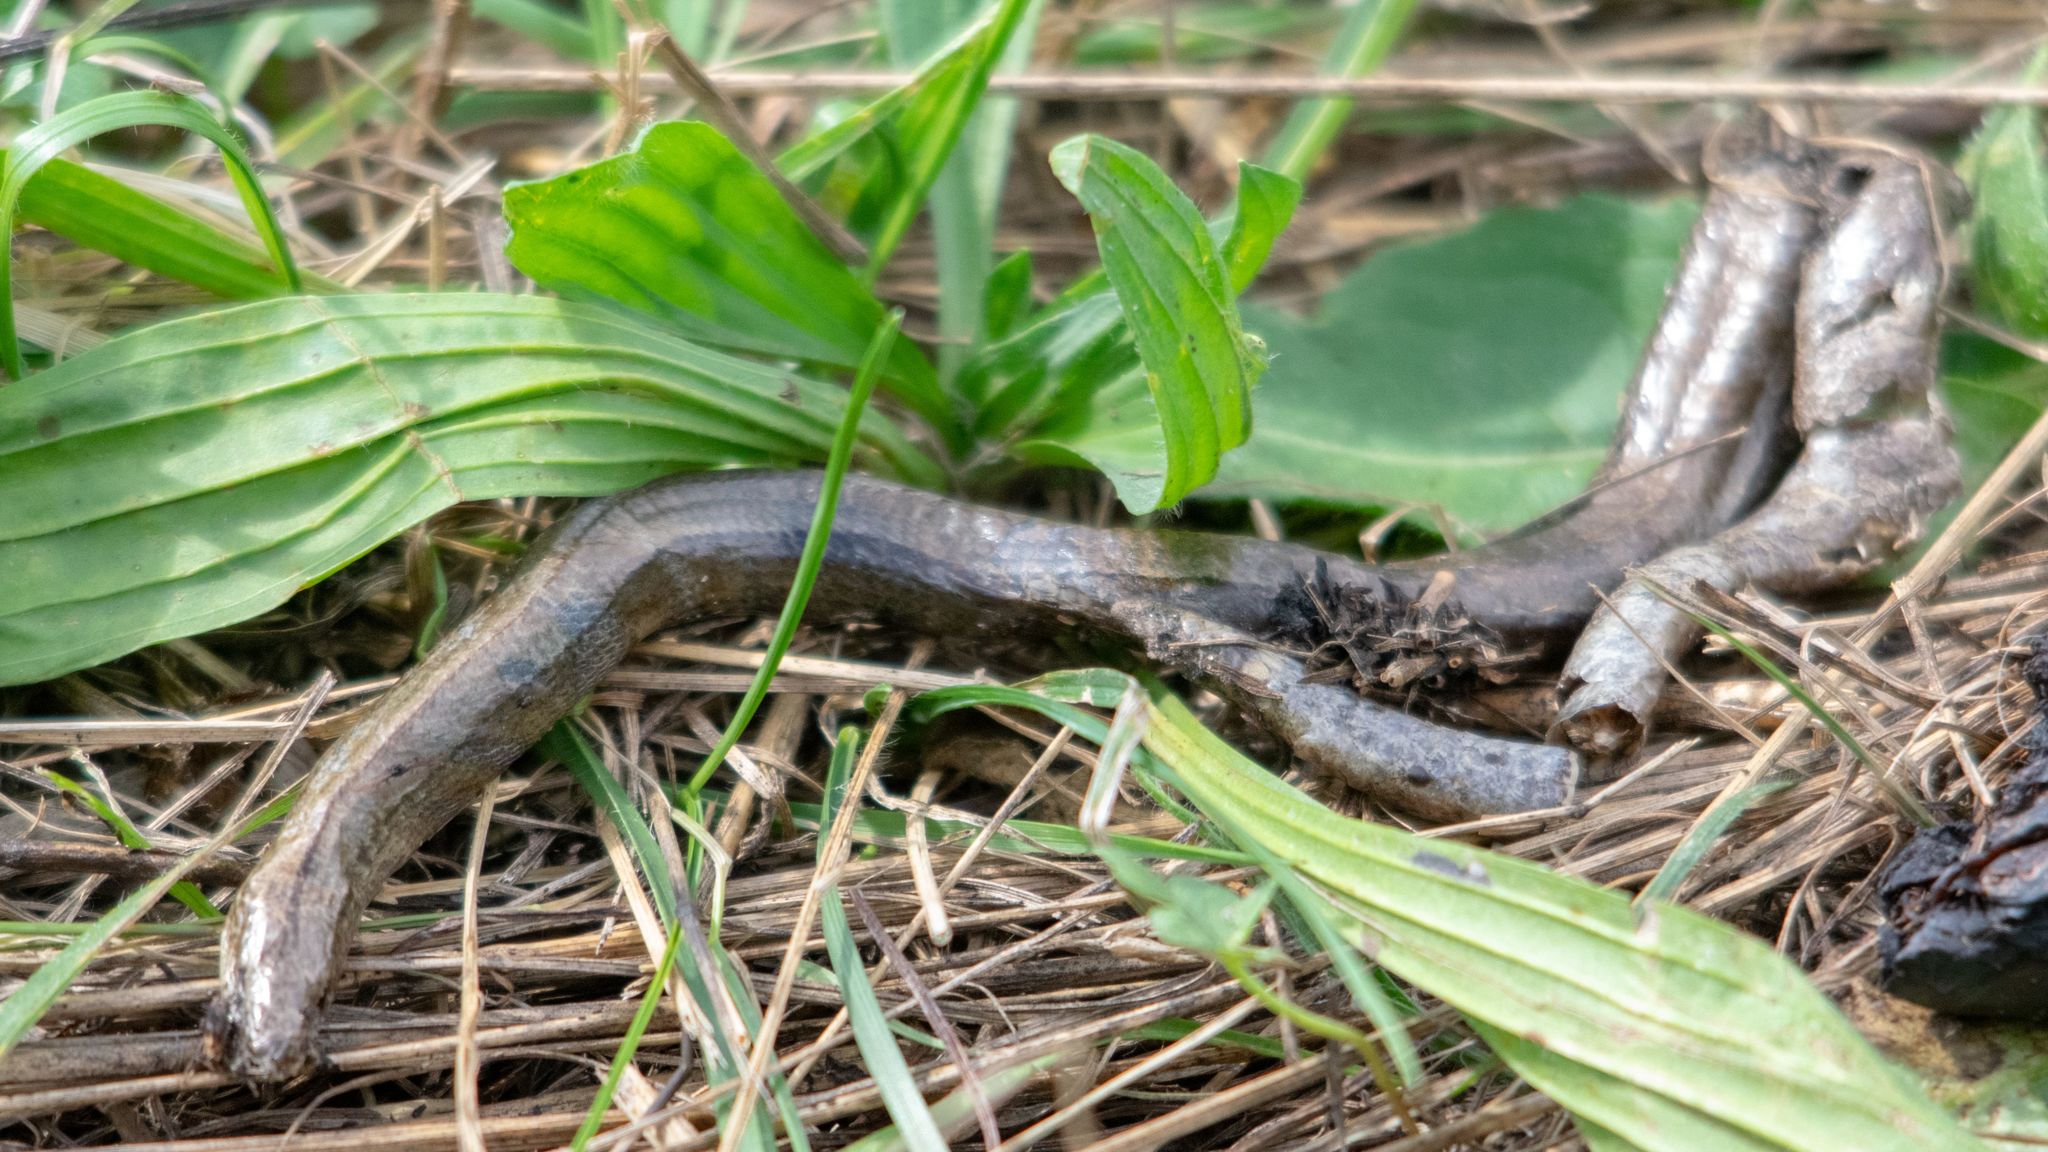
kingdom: Animalia
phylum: Chordata
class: Squamata
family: Anguidae
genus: Anguis
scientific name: Anguis fragilis
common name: Slow worm
